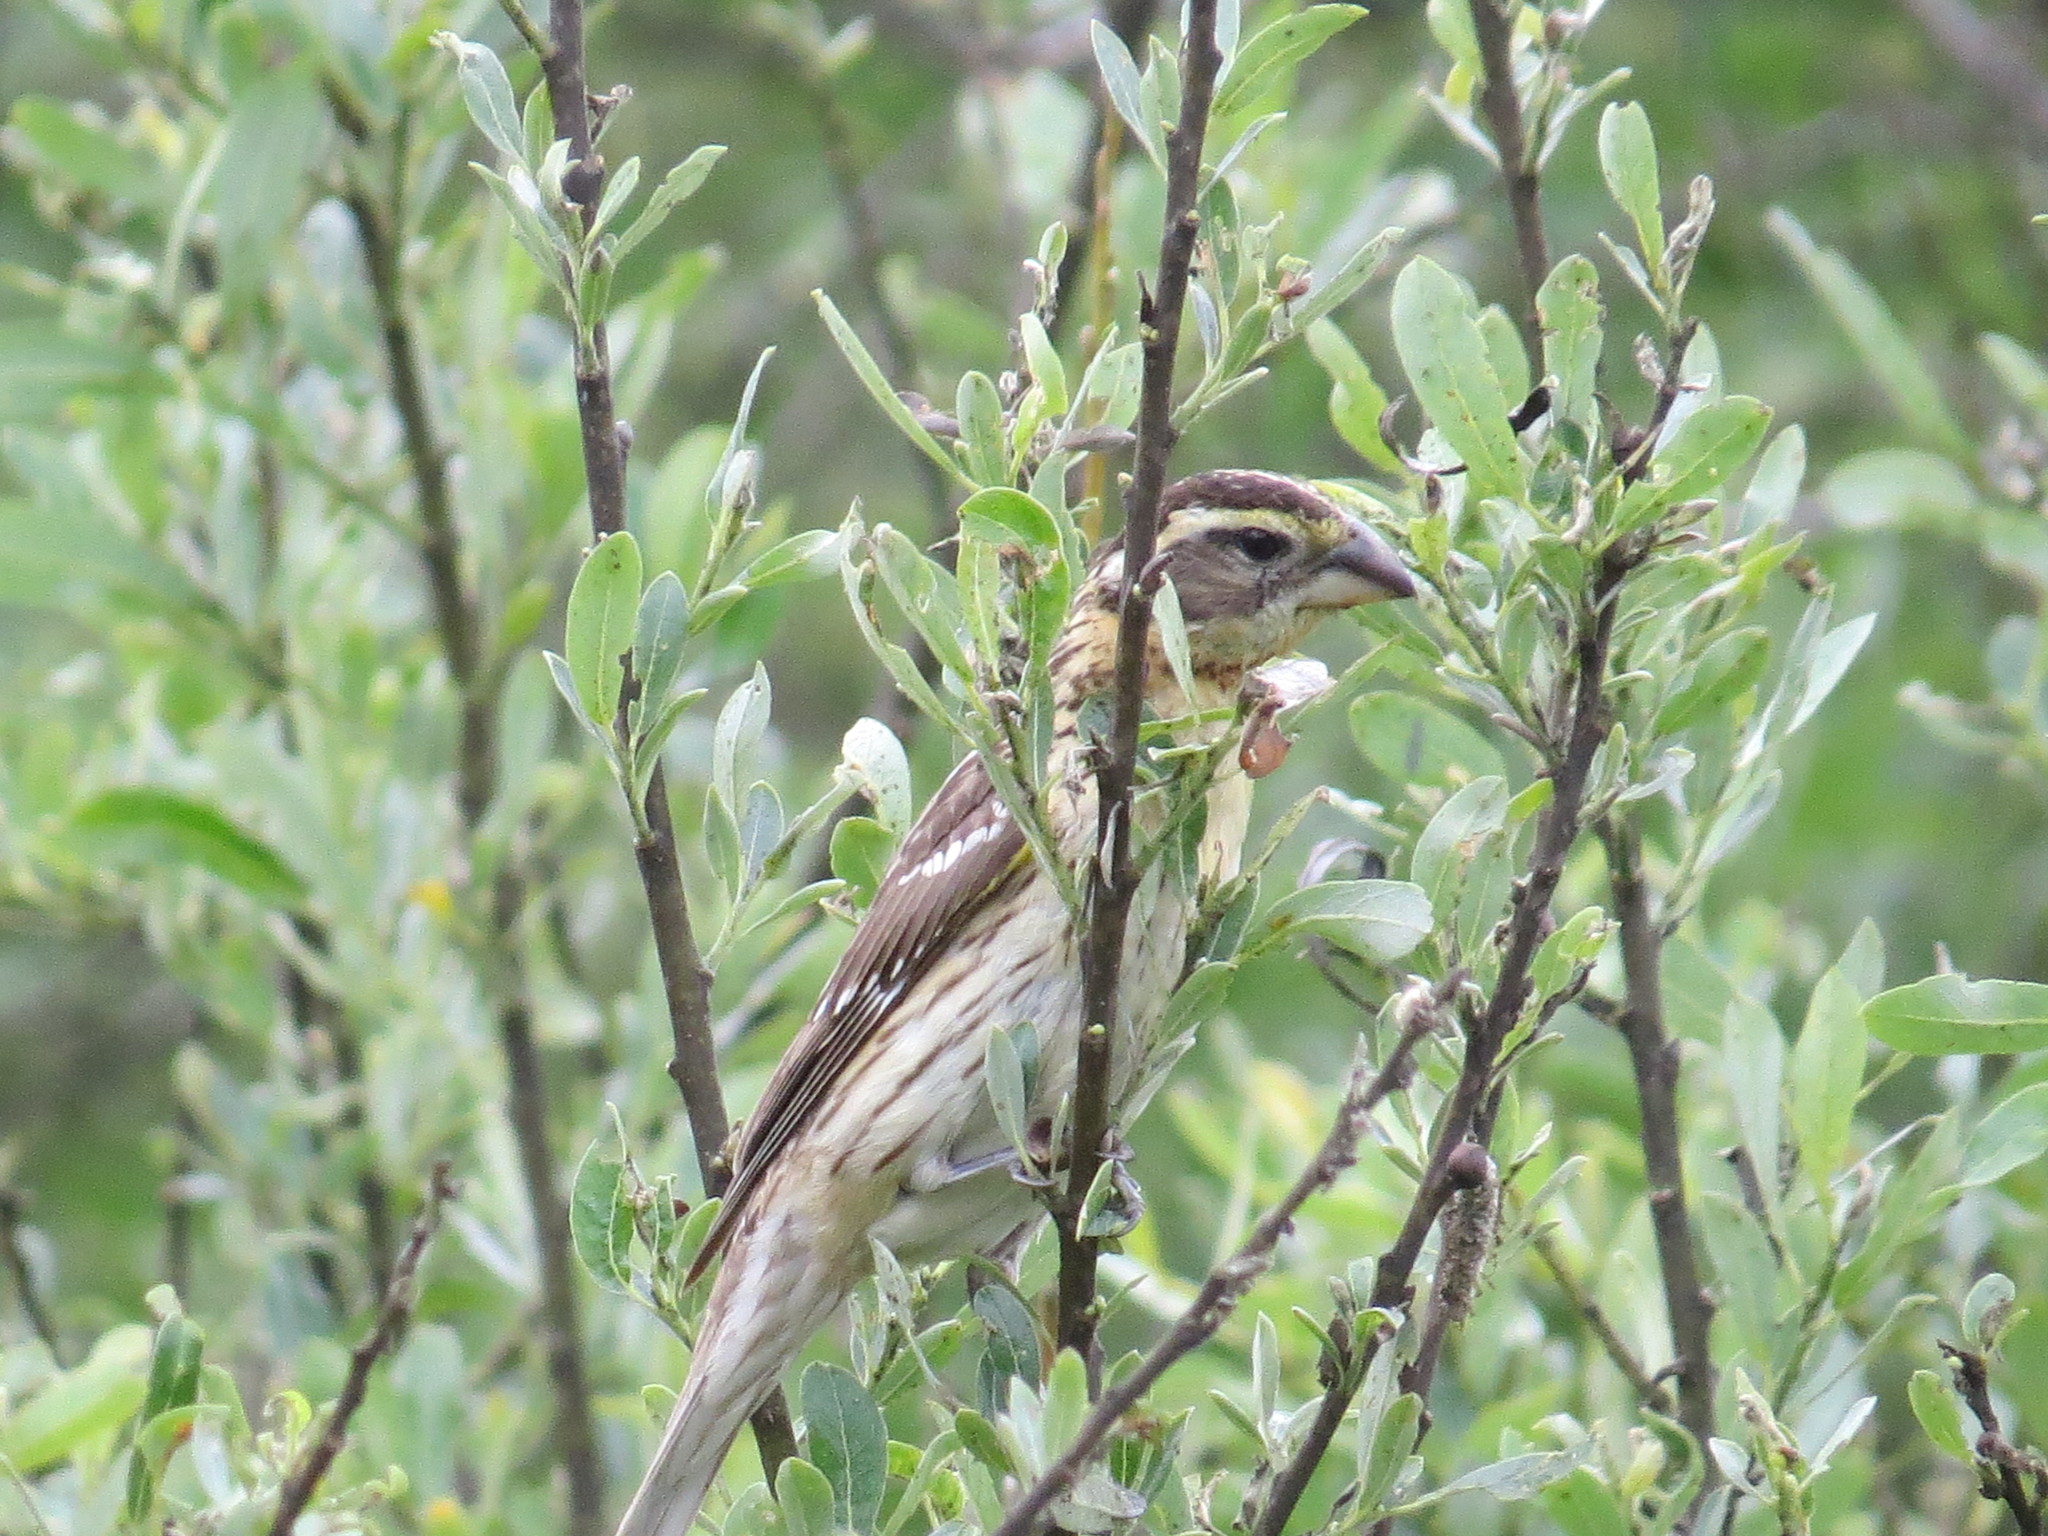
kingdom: Animalia
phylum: Chordata
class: Aves
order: Passeriformes
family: Cardinalidae
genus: Pheucticus
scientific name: Pheucticus melanocephalus
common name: Black-headed grosbeak
